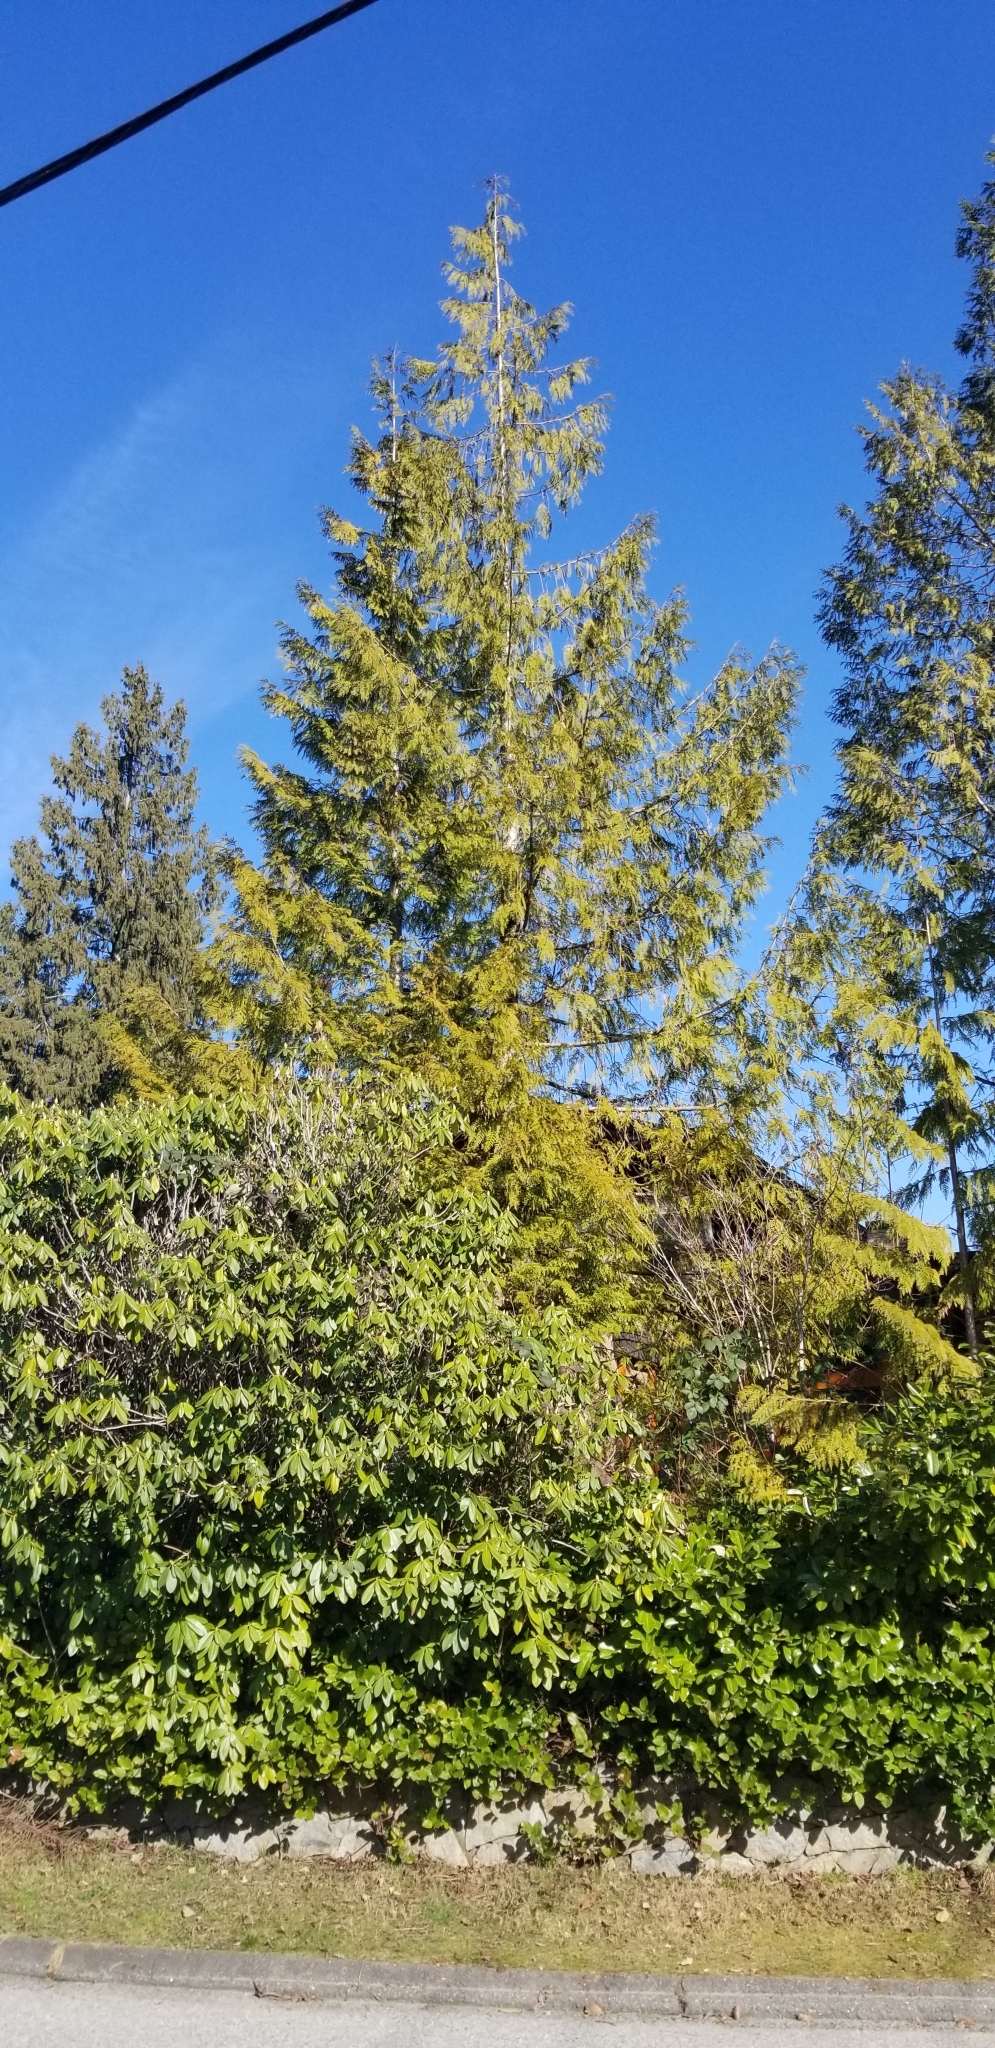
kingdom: Plantae
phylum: Tracheophyta
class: Pinopsida
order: Pinales
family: Cupressaceae
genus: Thuja
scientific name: Thuja plicata
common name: Western red-cedar
